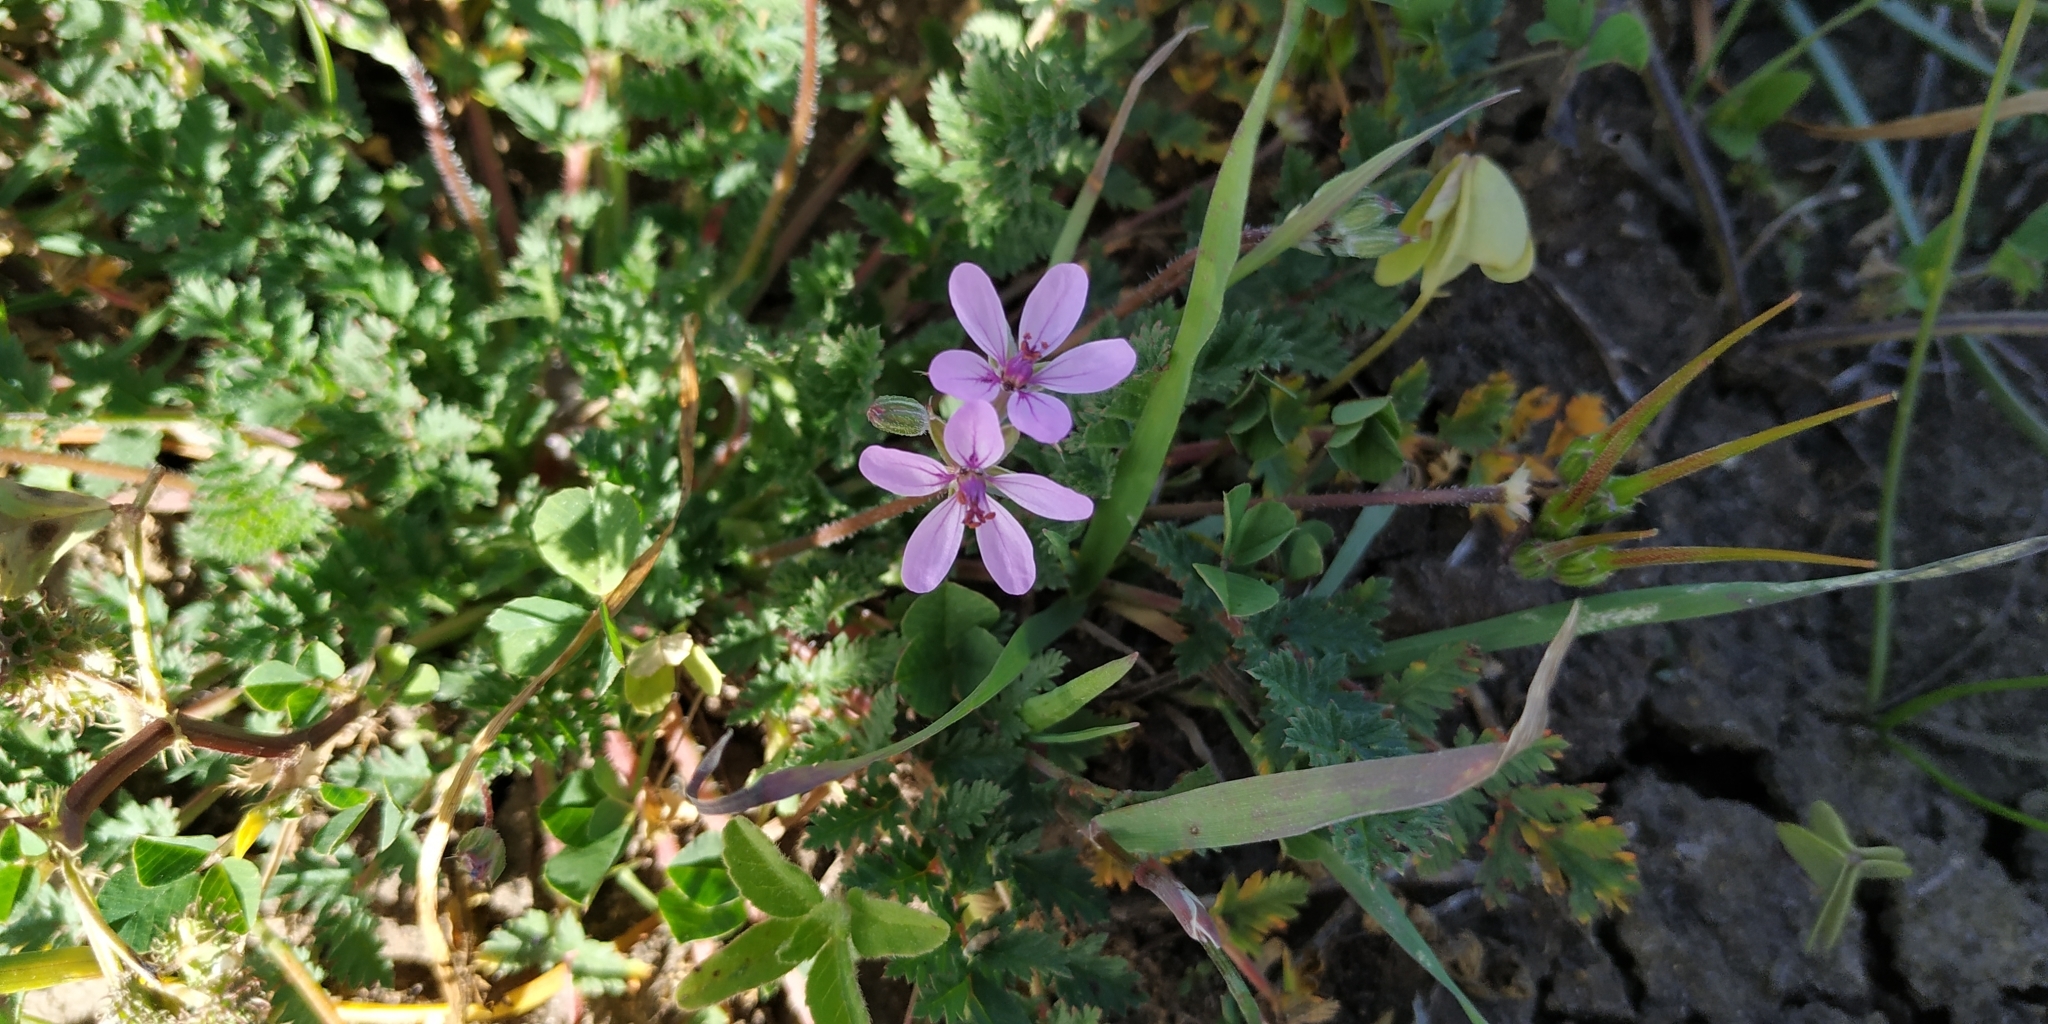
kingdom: Plantae
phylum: Tracheophyta
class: Magnoliopsida
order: Geraniales
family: Geraniaceae
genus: Erodium
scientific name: Erodium cicutarium
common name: Common stork's-bill
